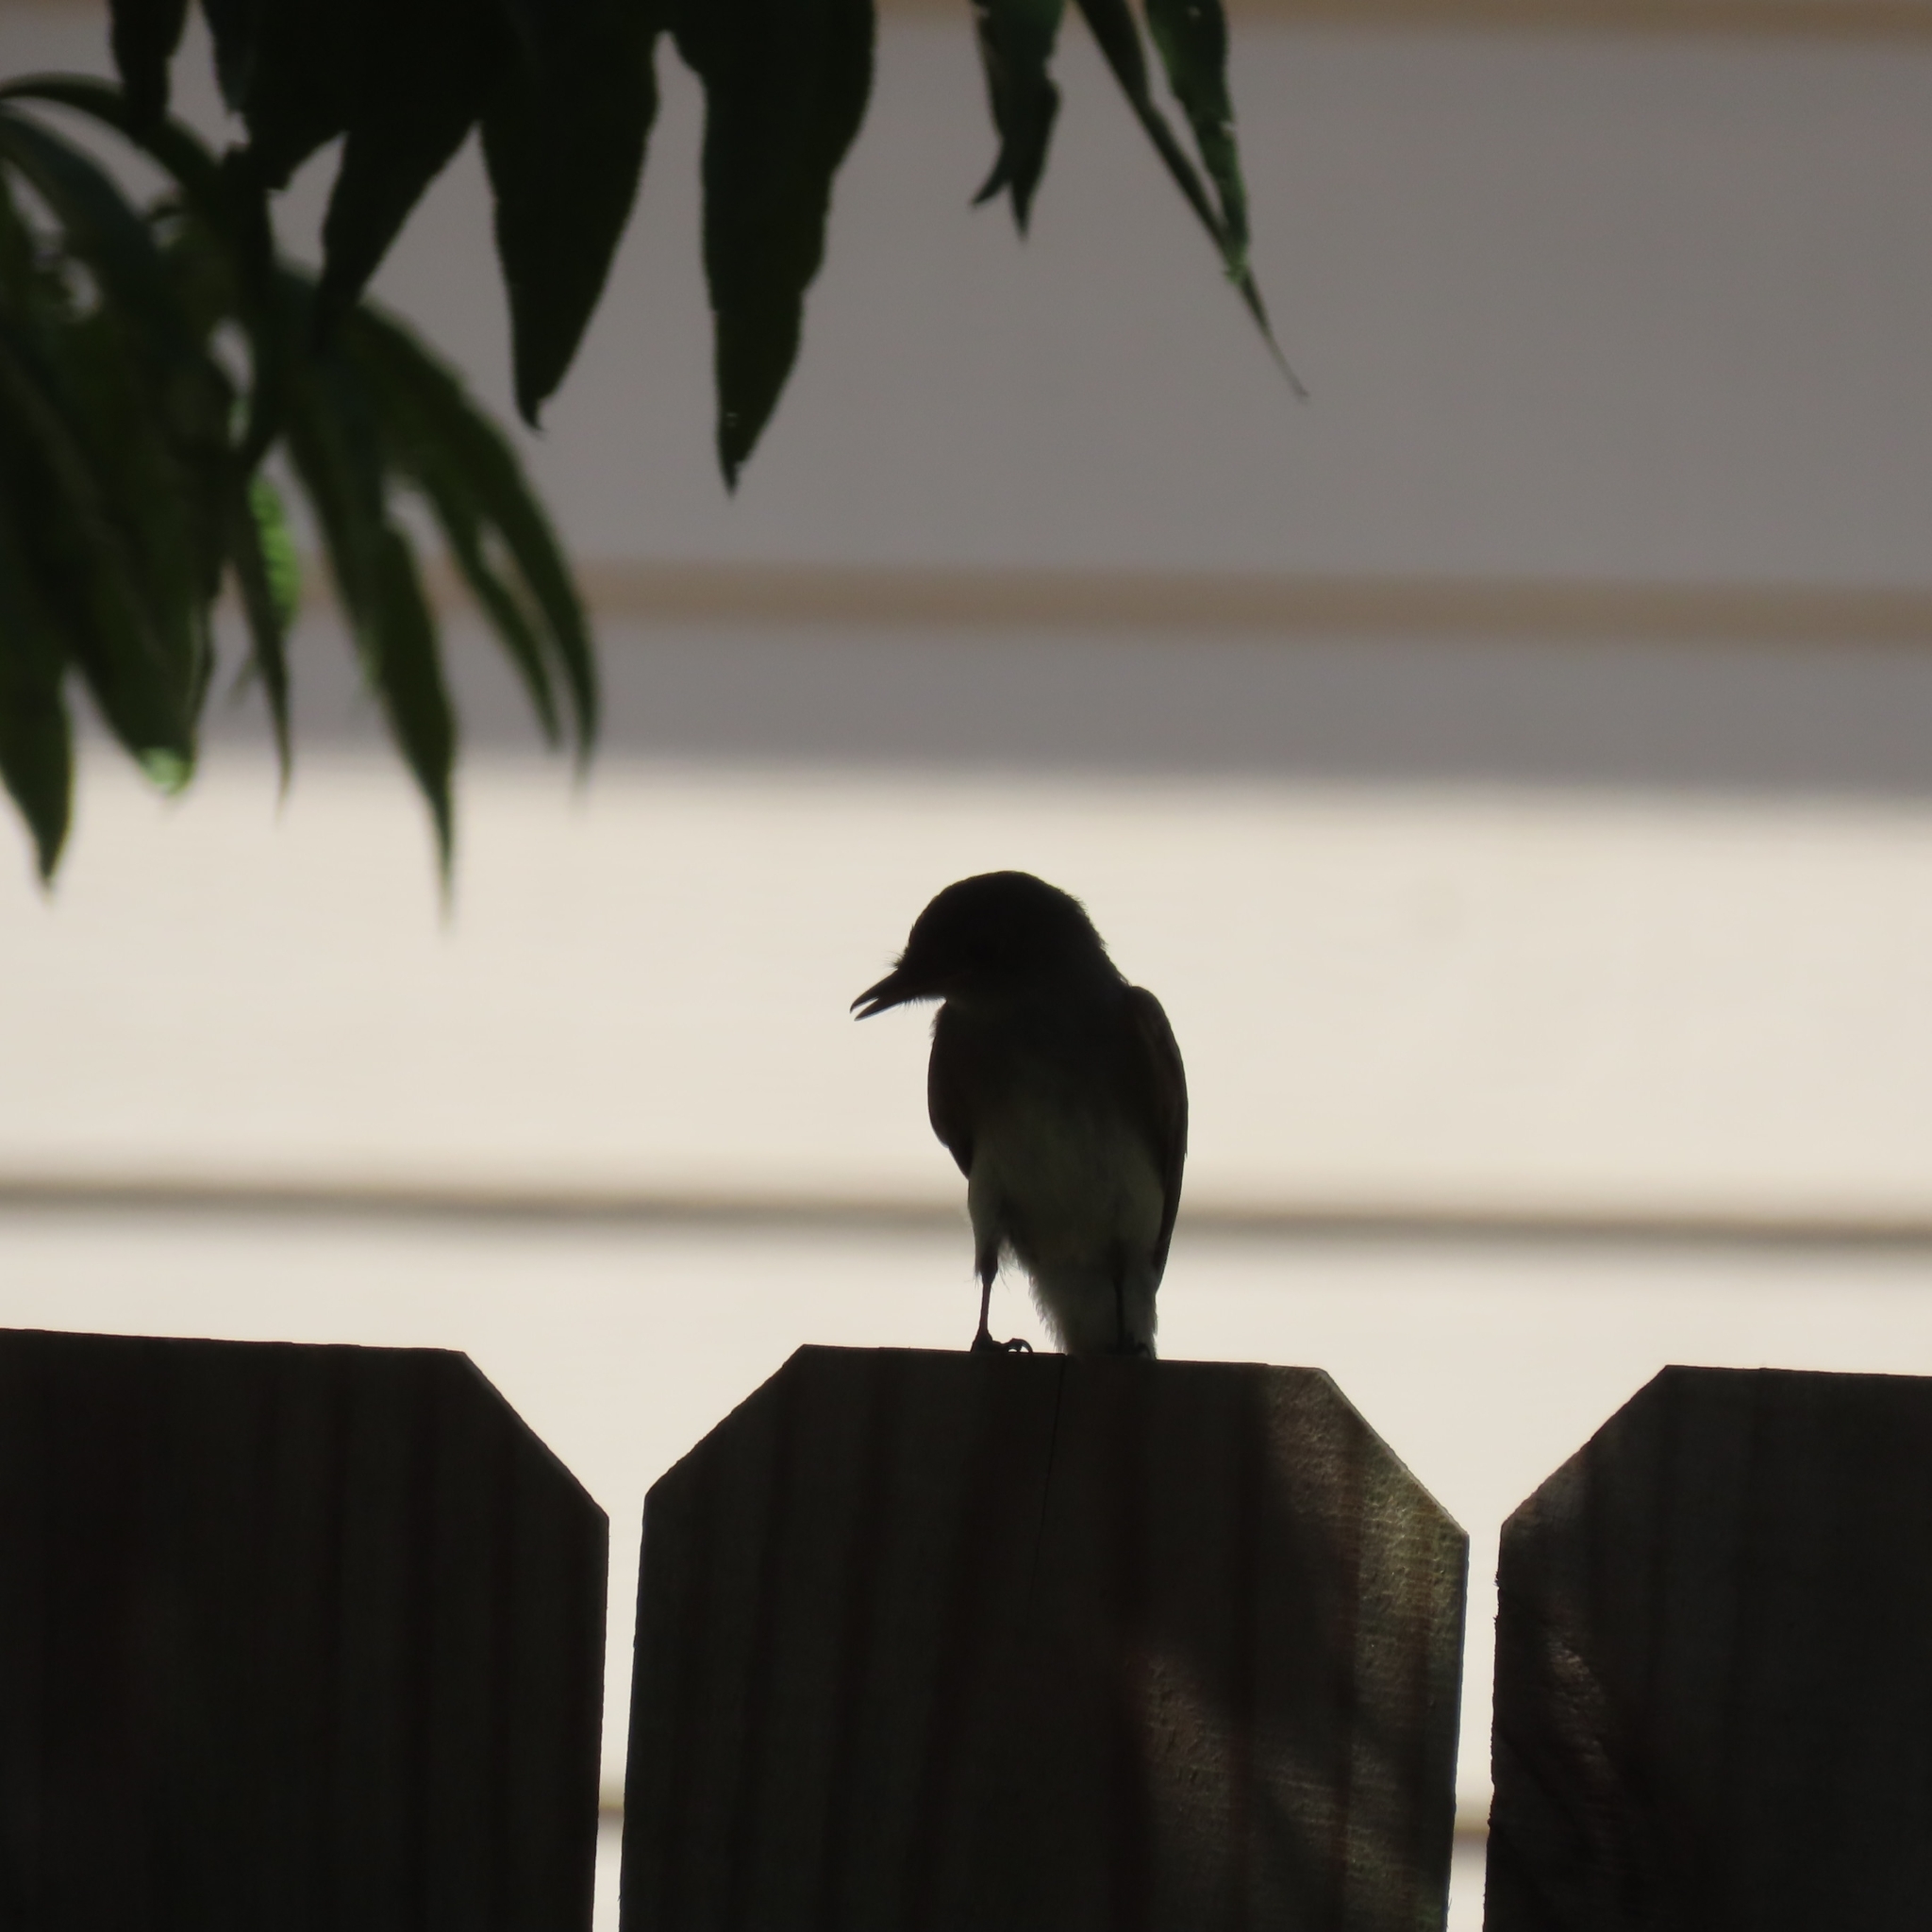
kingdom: Animalia
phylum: Chordata
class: Aves
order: Passeriformes
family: Tyrannidae
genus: Sayornis
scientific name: Sayornis phoebe
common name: Eastern phoebe
